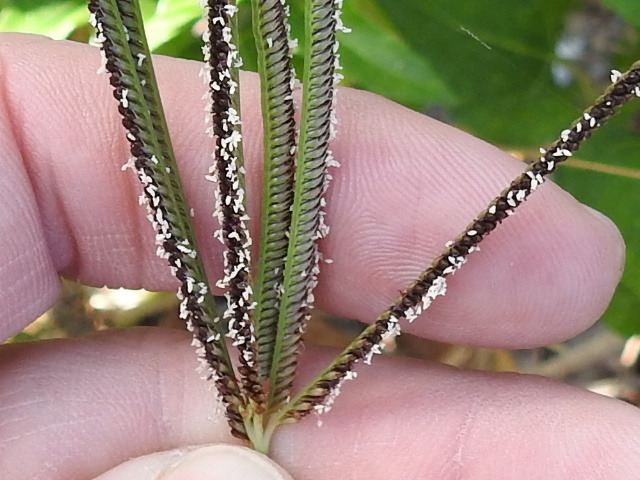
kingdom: Plantae
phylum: Tracheophyta
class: Liliopsida
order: Poales
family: Poaceae
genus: Eustachys
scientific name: Eustachys petraea
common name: Pinewoods fingergrass
